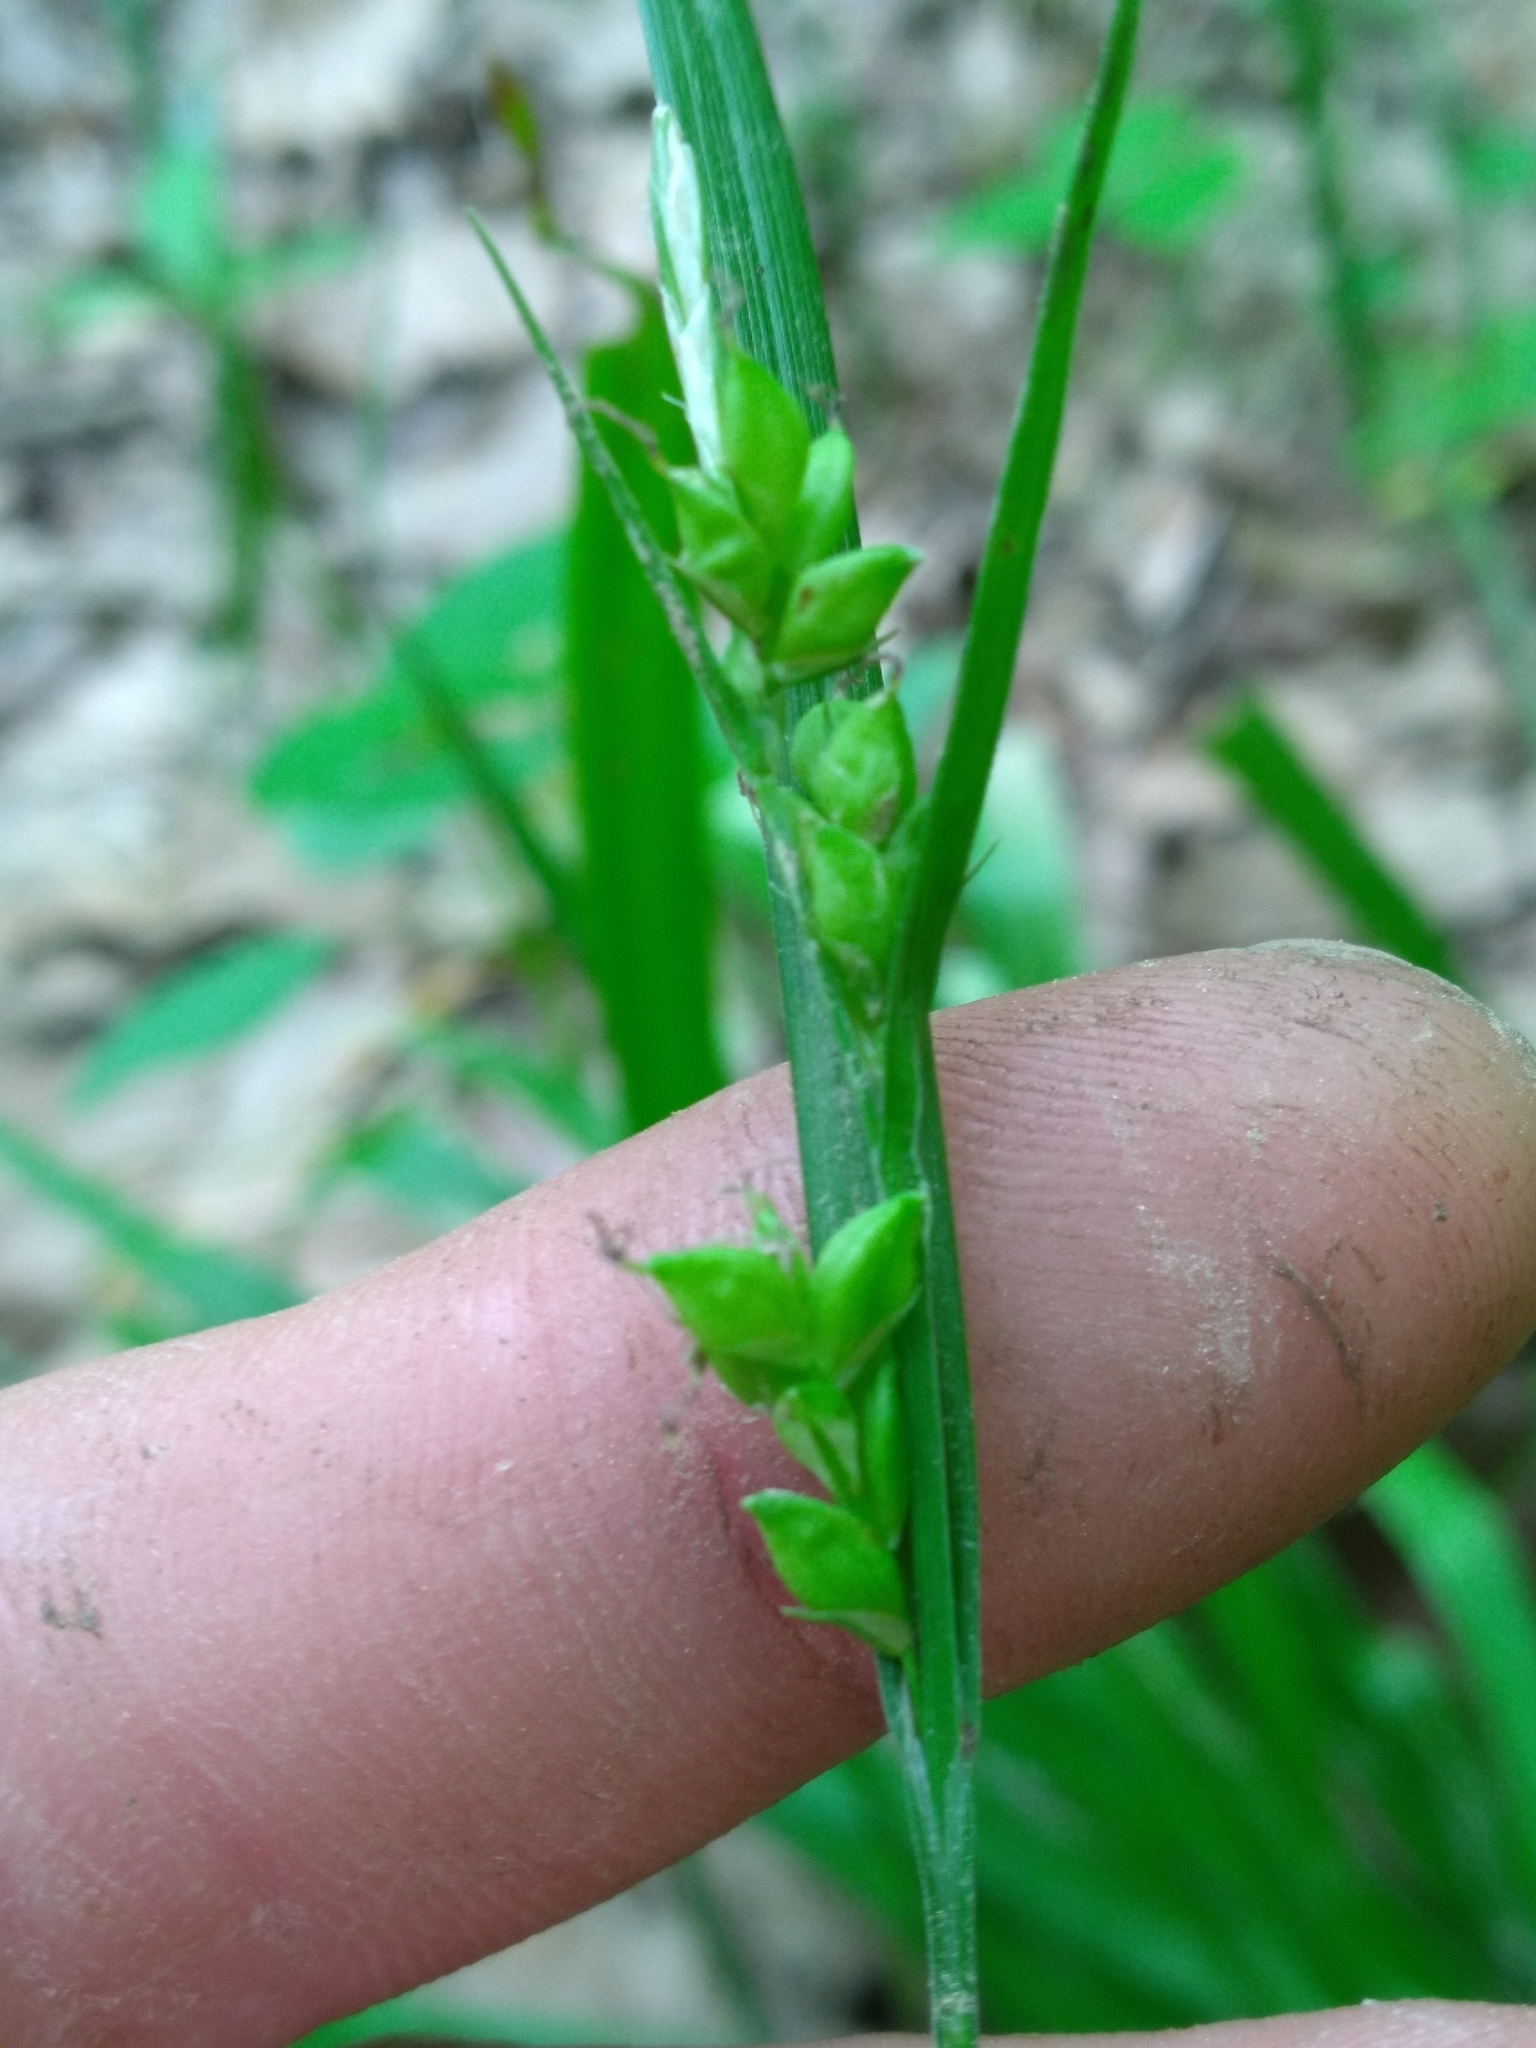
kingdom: Plantae
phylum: Tracheophyta
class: Liliopsida
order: Poales
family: Cyperaceae
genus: Carex
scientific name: Carex careyana
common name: Carey's sedge
